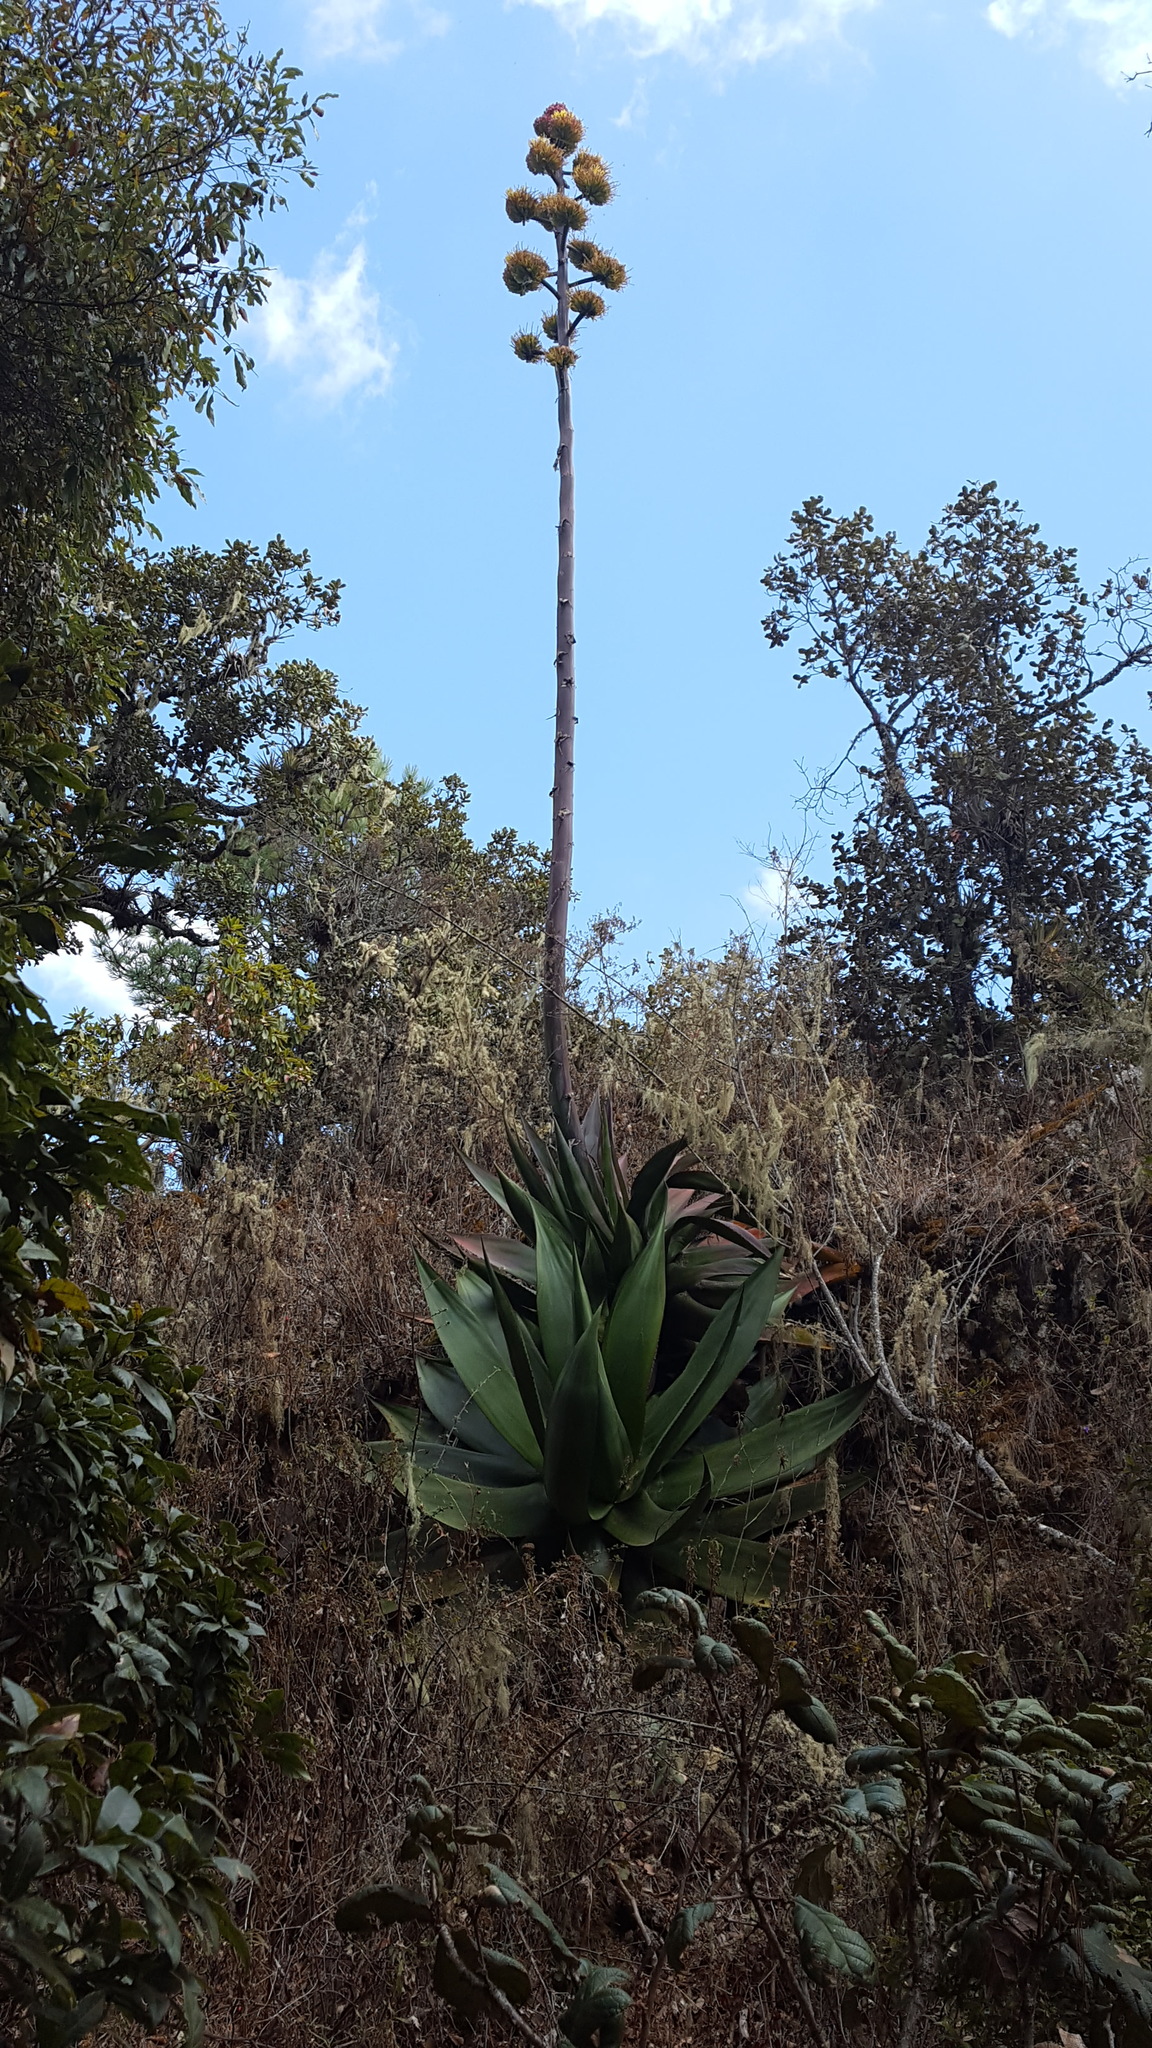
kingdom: Plantae
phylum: Tracheophyta
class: Liliopsida
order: Asparagales
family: Asparagaceae
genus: Agave
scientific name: Agave atrovirens
